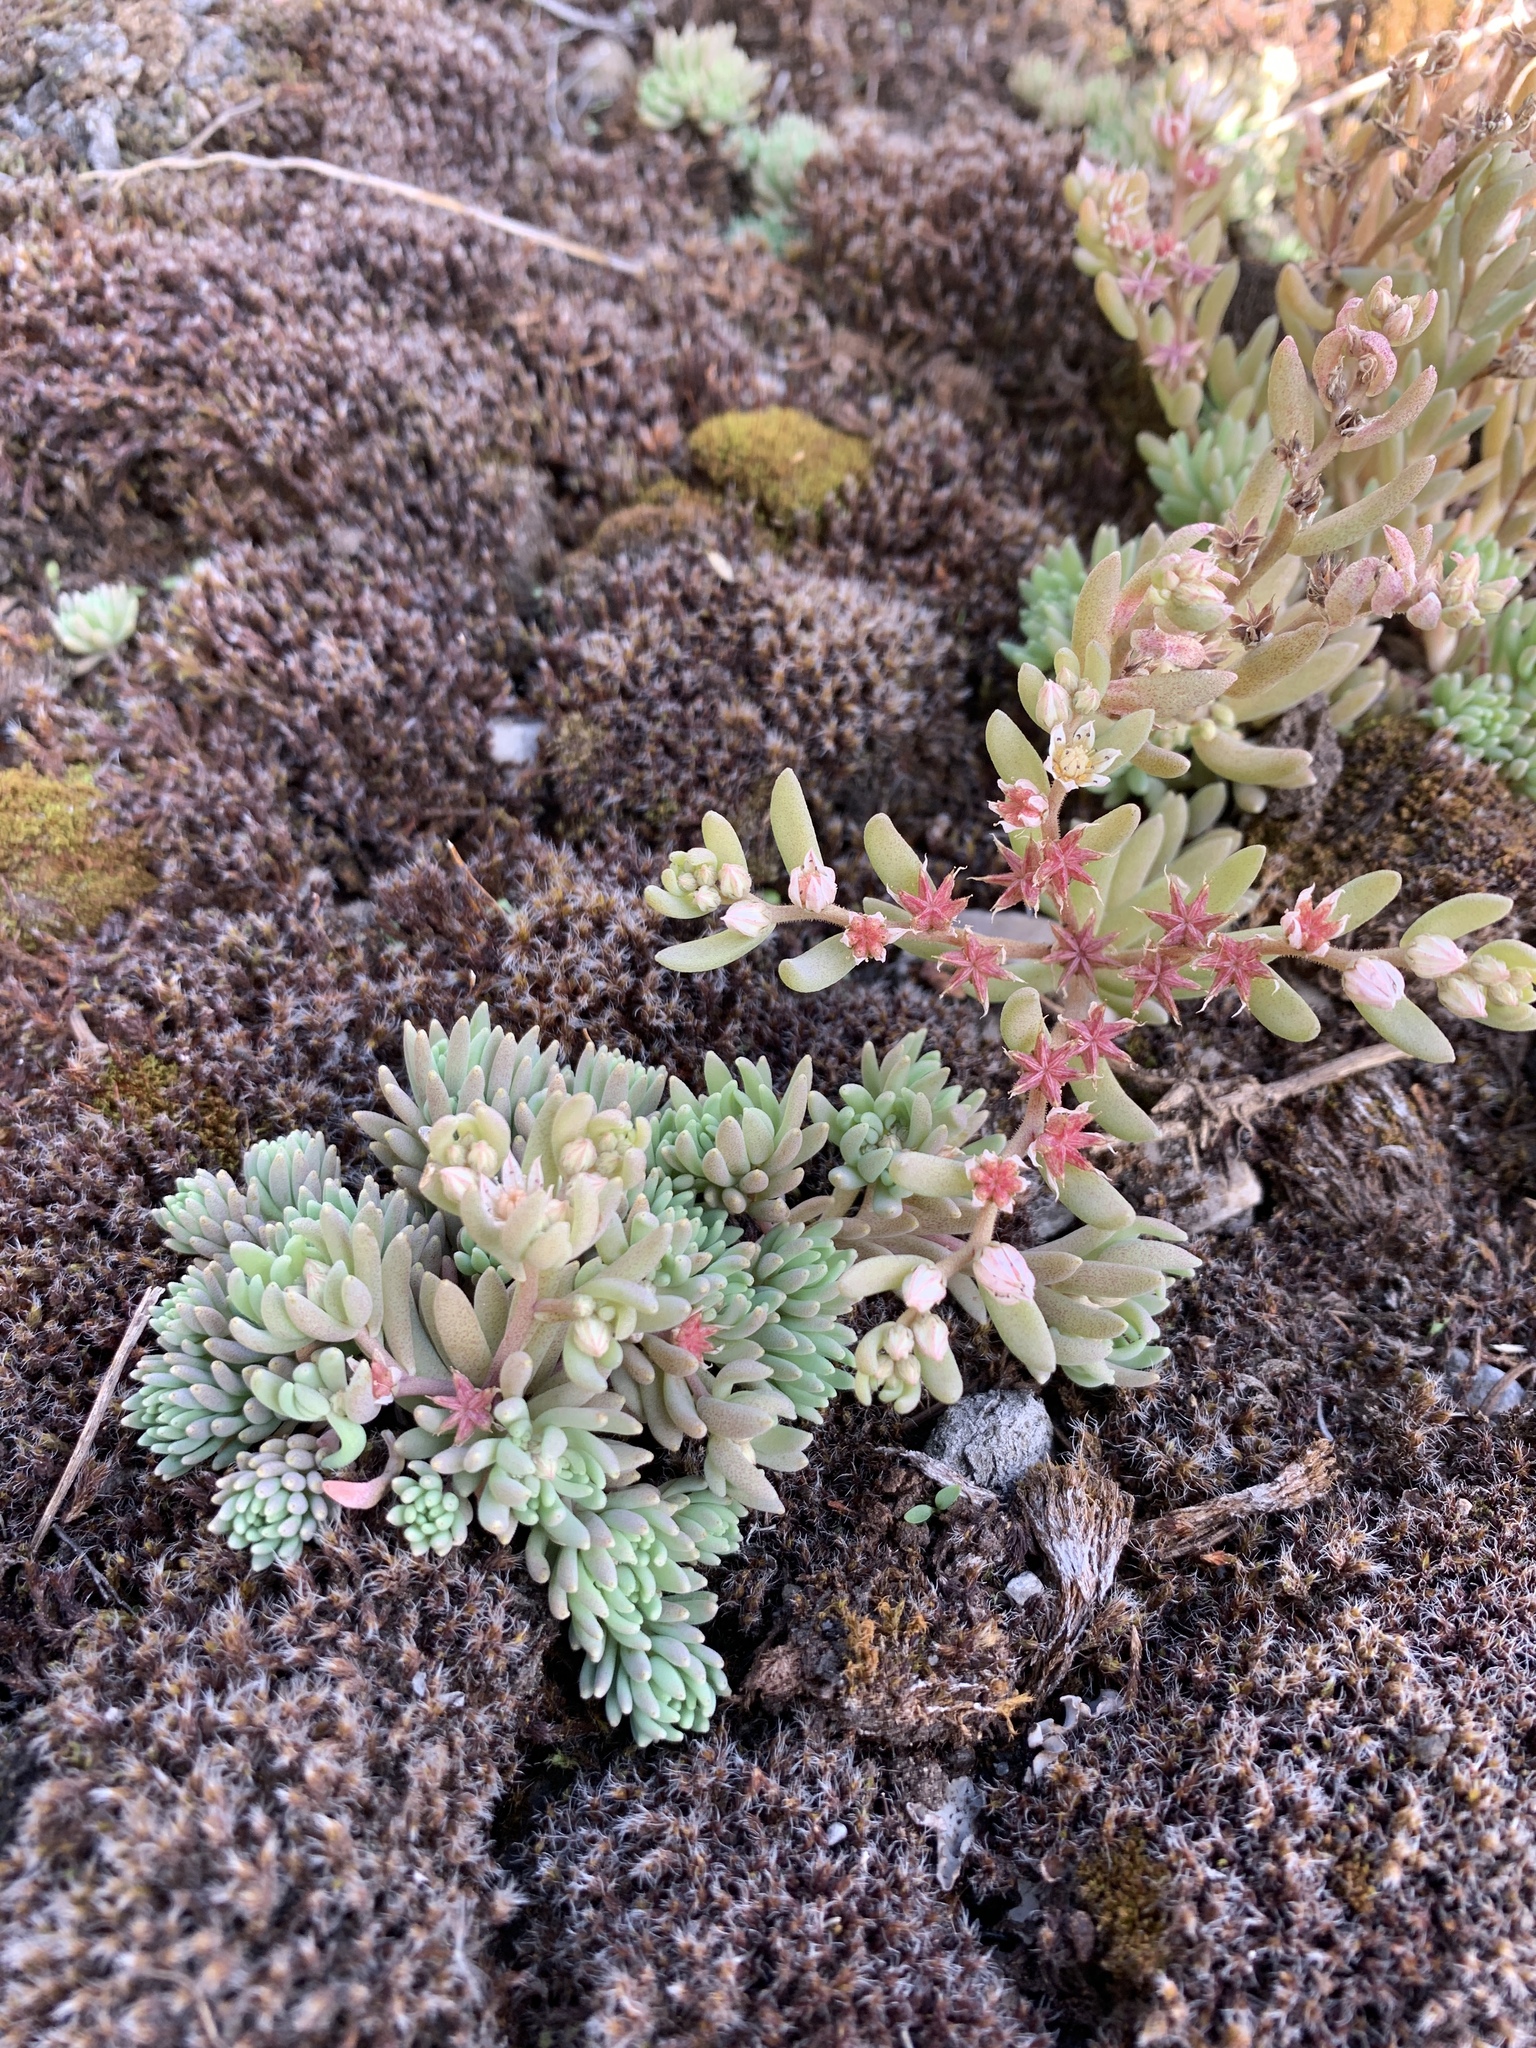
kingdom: Plantae
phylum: Tracheophyta
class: Magnoliopsida
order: Saxifragales
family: Crassulaceae
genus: Sedum
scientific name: Sedum hispanicum
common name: Spanish stonecrop
